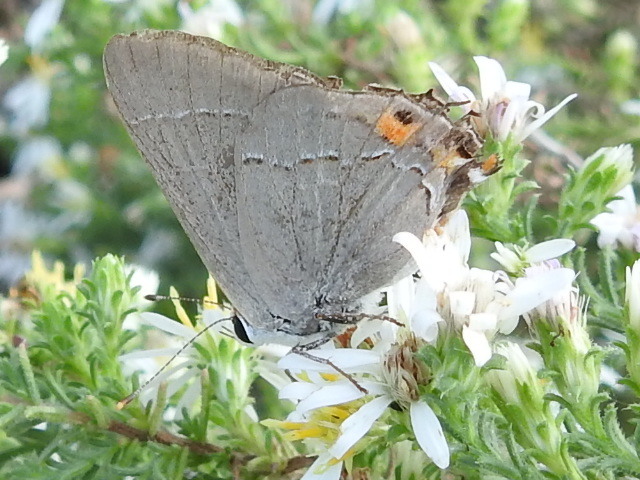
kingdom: Animalia
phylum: Arthropoda
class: Insecta
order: Lepidoptera
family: Lycaenidae
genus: Strymon
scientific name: Strymon melinus
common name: Gray hairstreak
